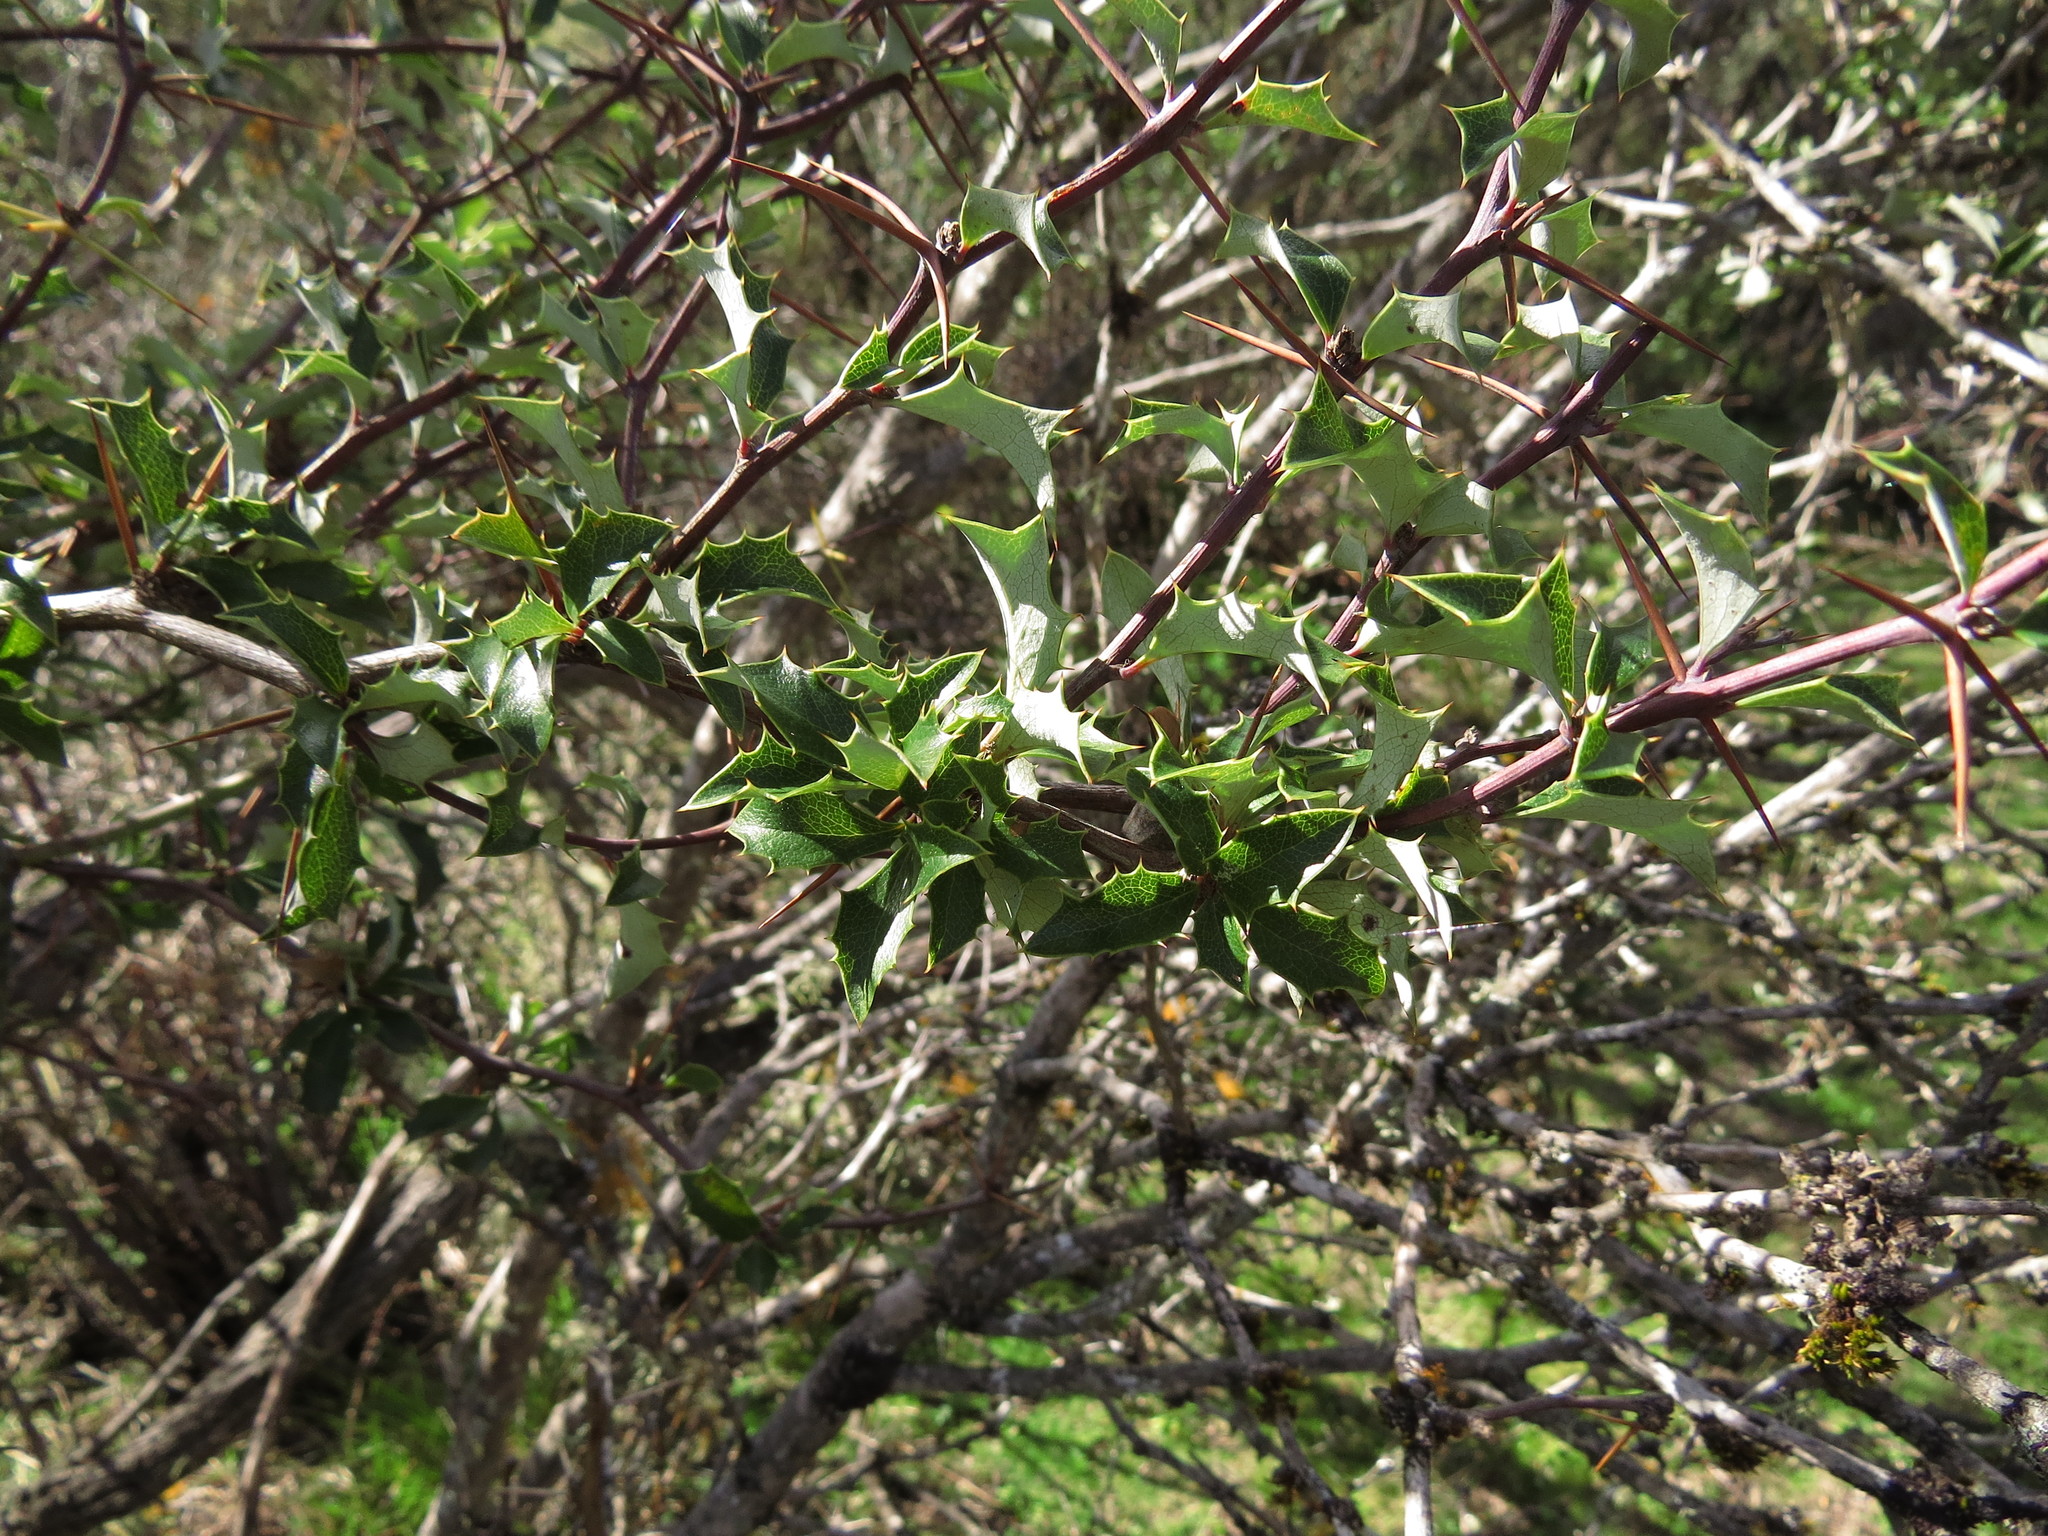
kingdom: Plantae
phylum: Tracheophyta
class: Magnoliopsida
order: Ranunculales
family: Berberidaceae
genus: Berberis
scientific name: Berberis chilensis
